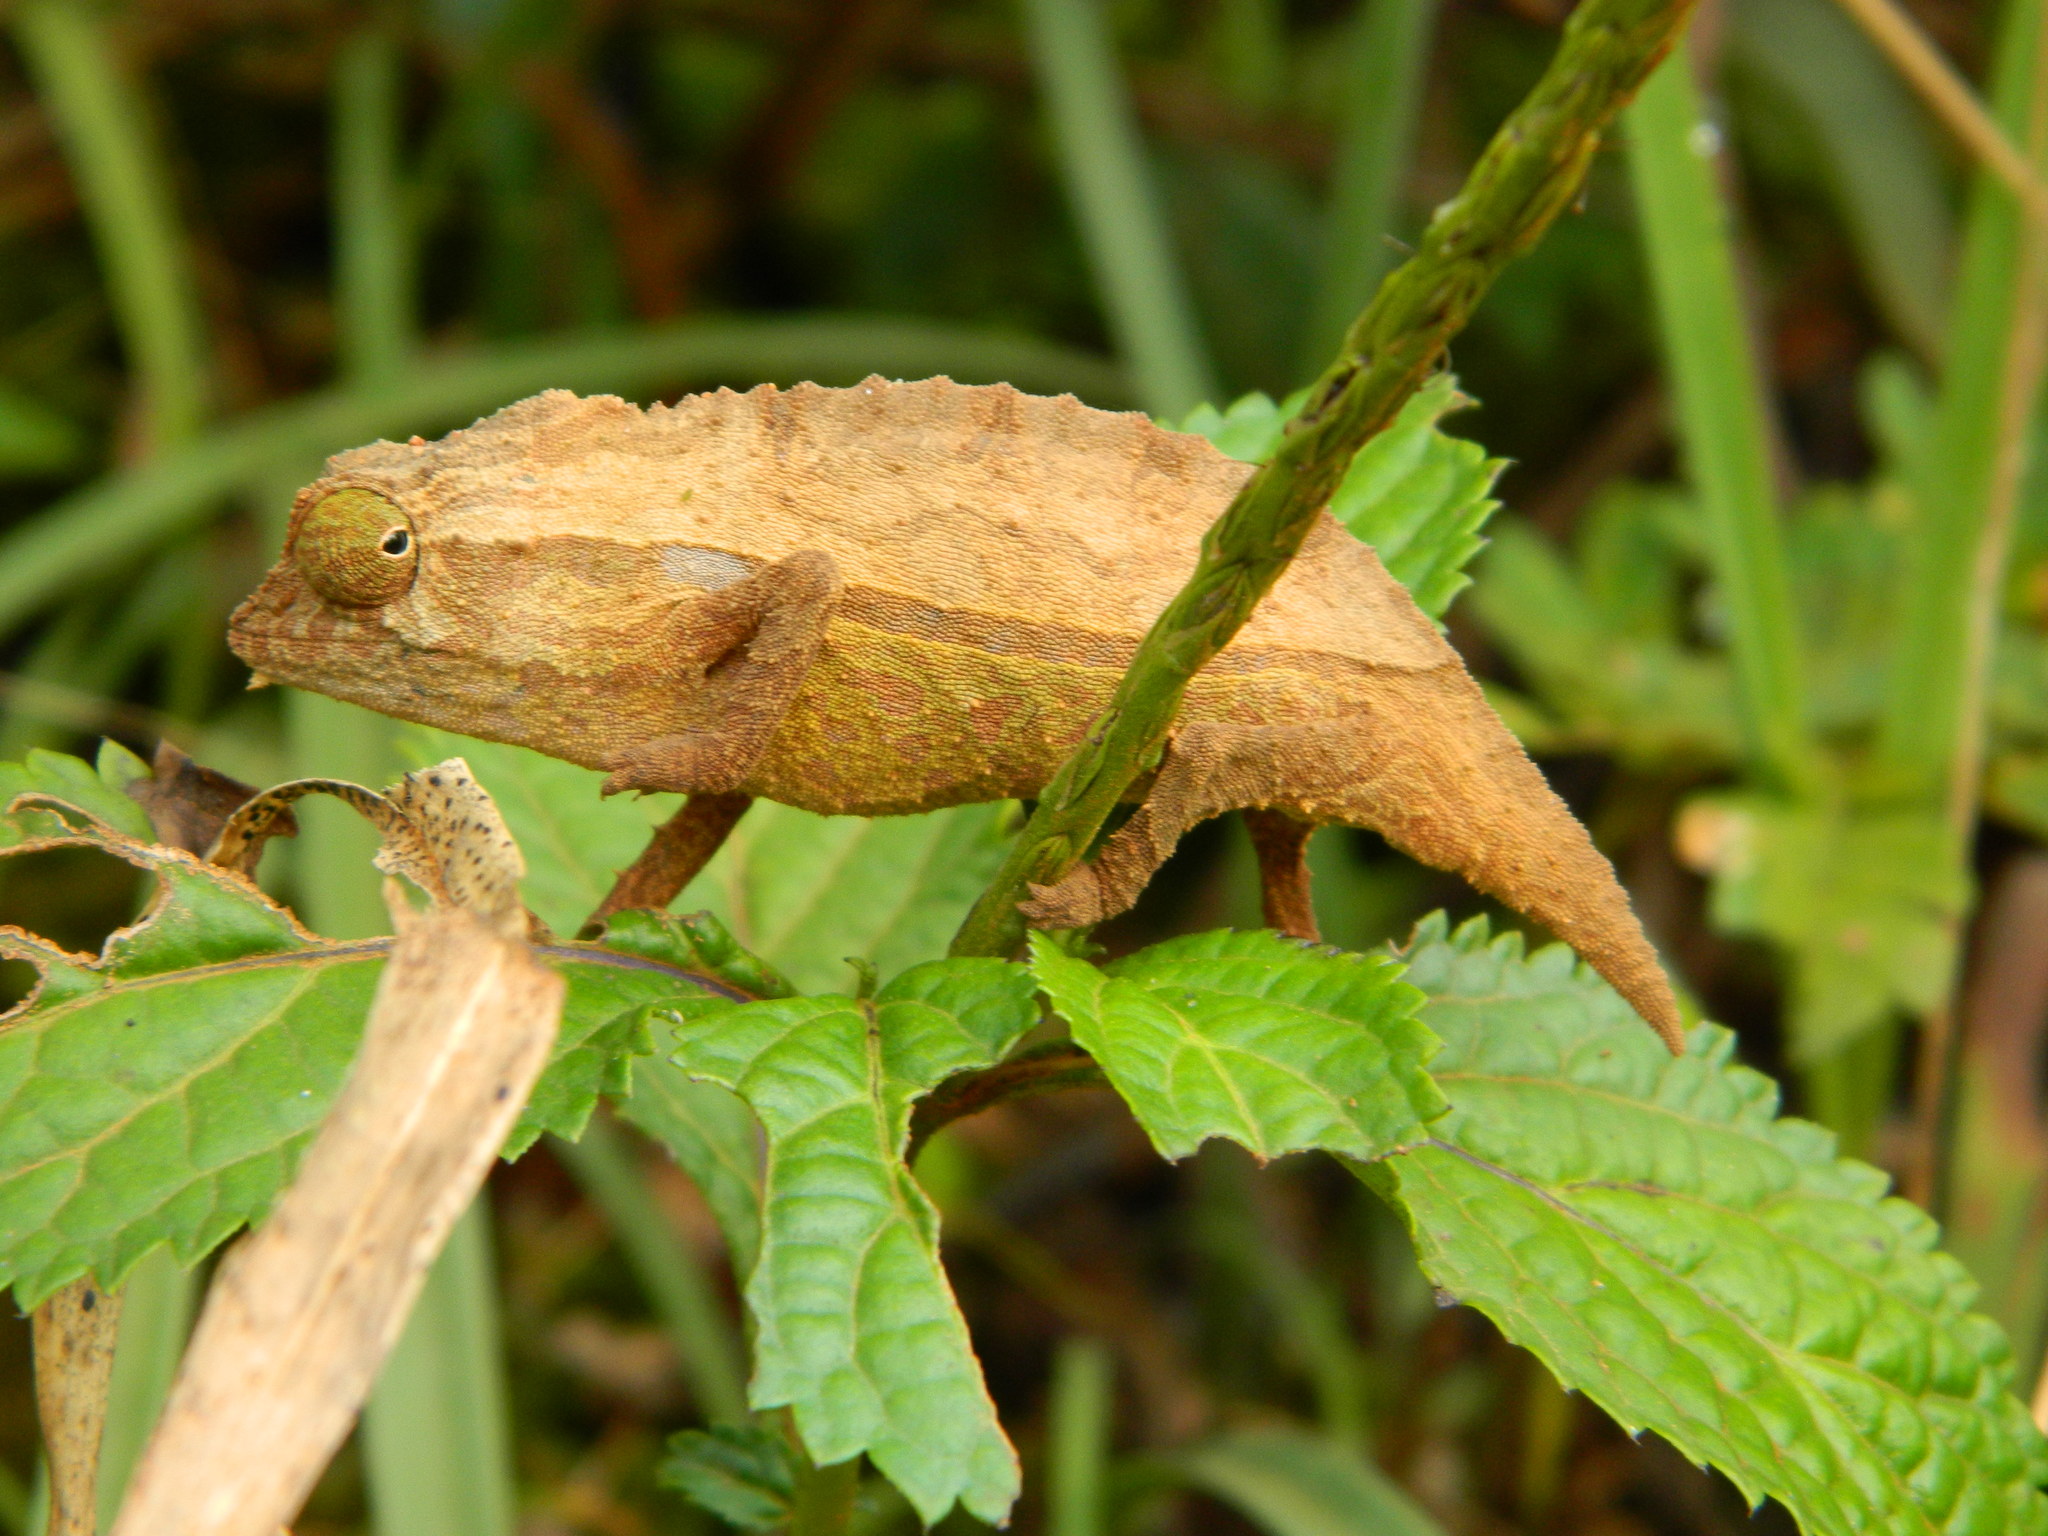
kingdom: Animalia
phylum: Chordata
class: Squamata
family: Chamaeleonidae
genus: Rieppeleon
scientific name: Rieppeleon brevicaudatus
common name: Bearded pygmy chameleon
